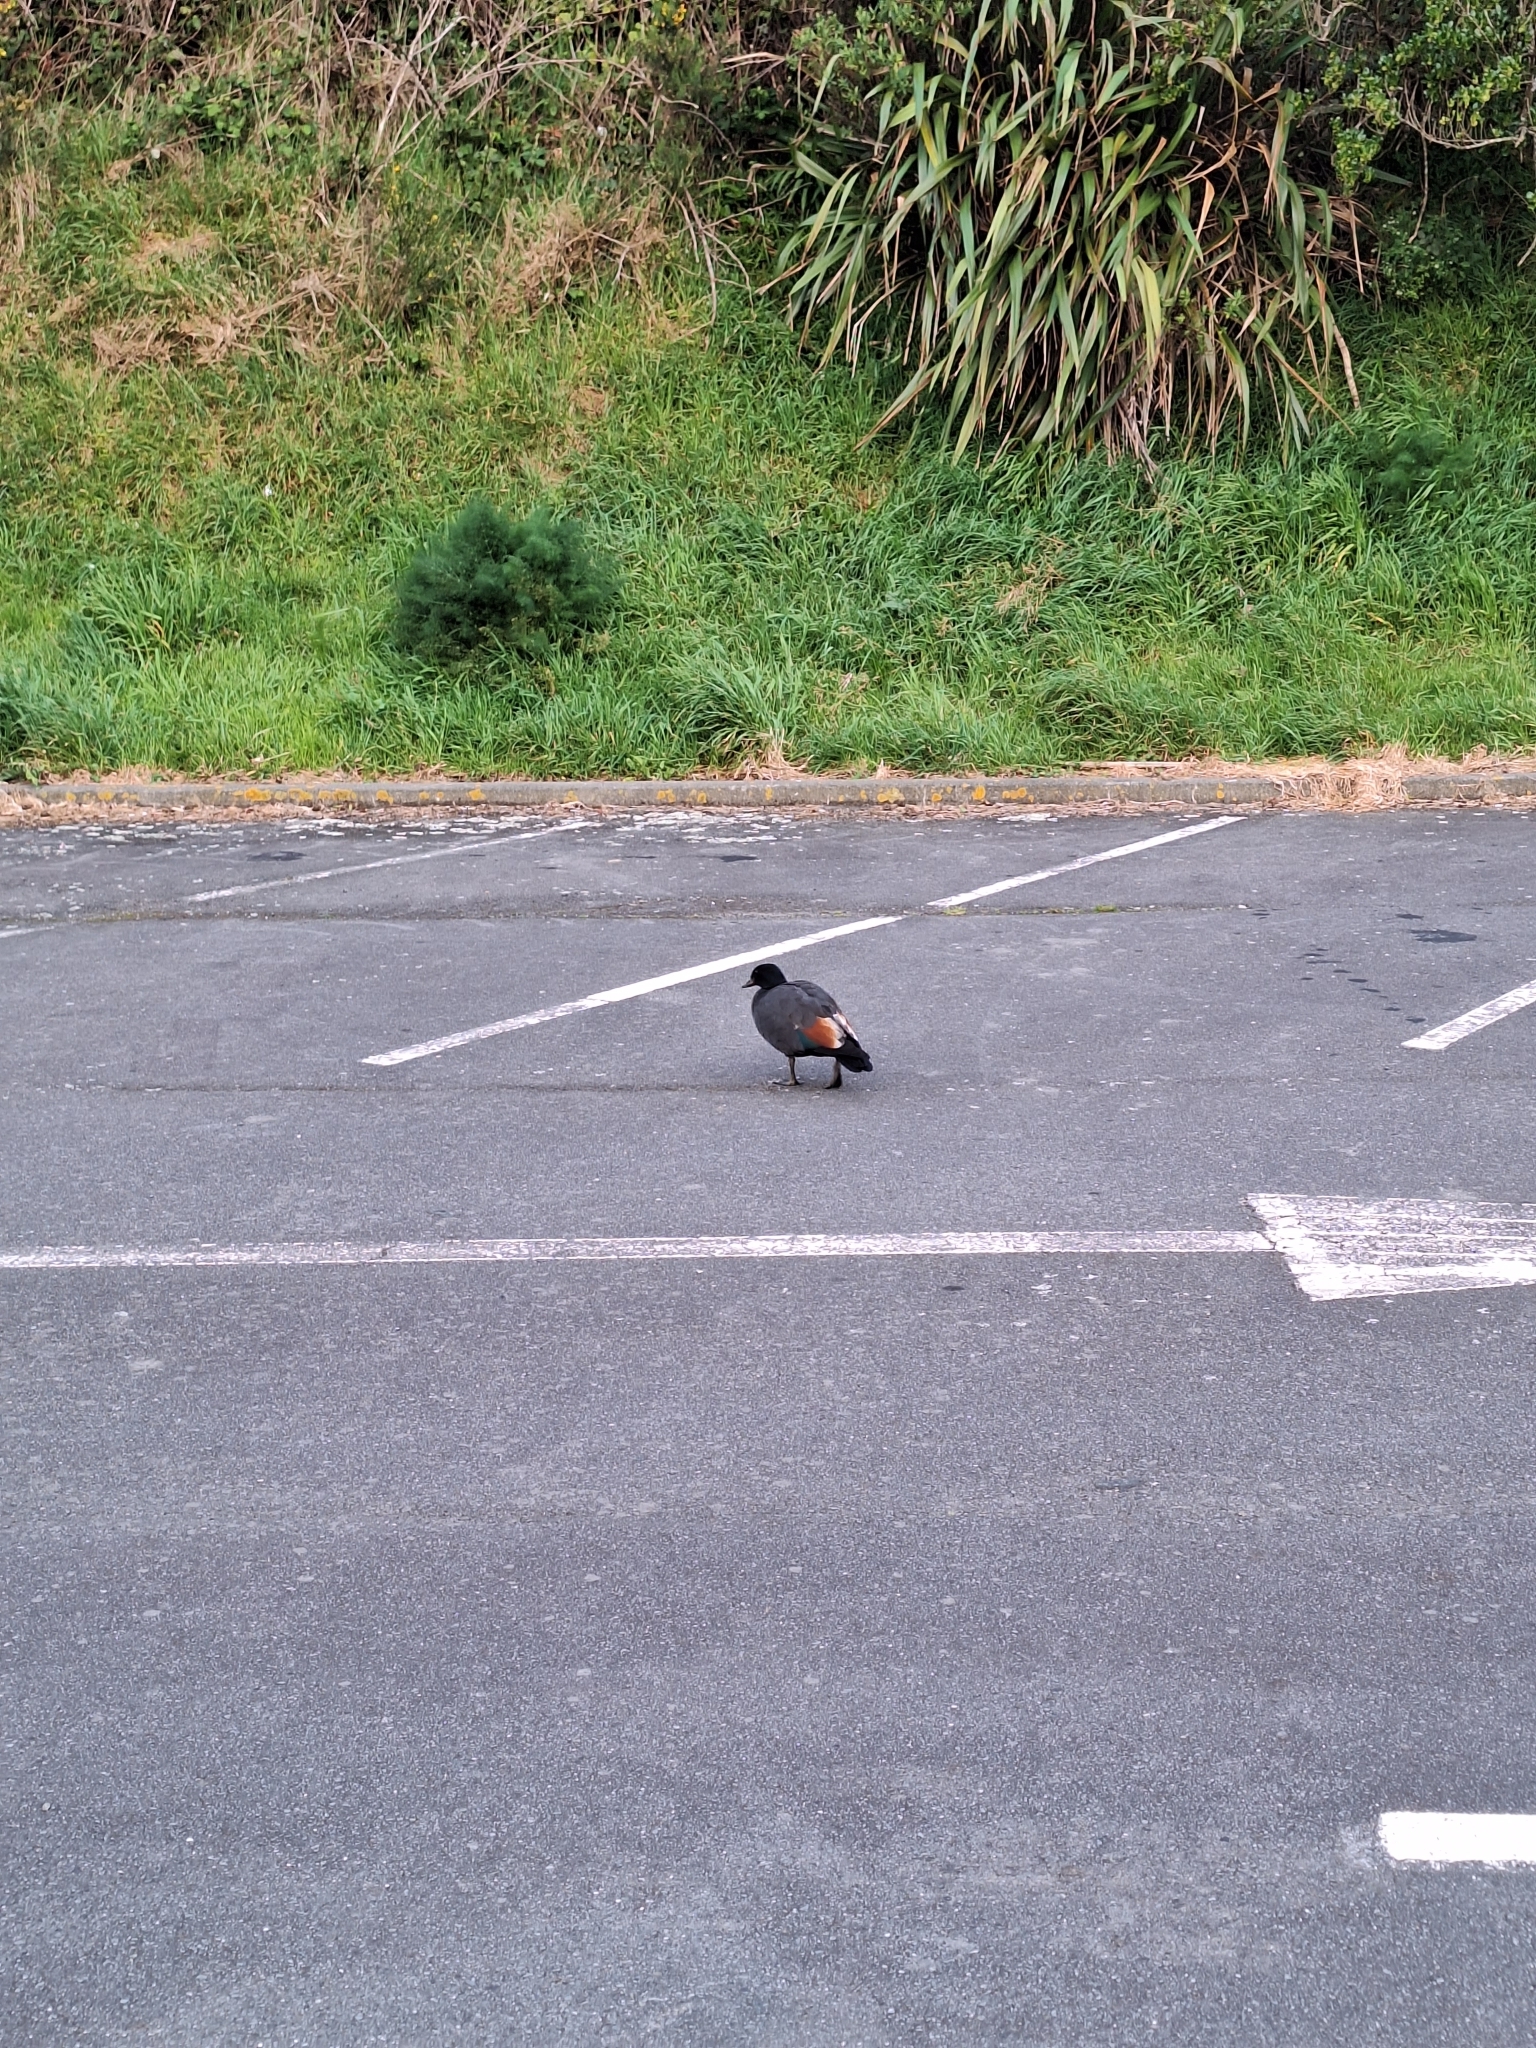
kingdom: Animalia
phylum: Chordata
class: Aves
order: Anseriformes
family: Anatidae
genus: Tadorna
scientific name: Tadorna variegata
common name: Paradise shelduck
